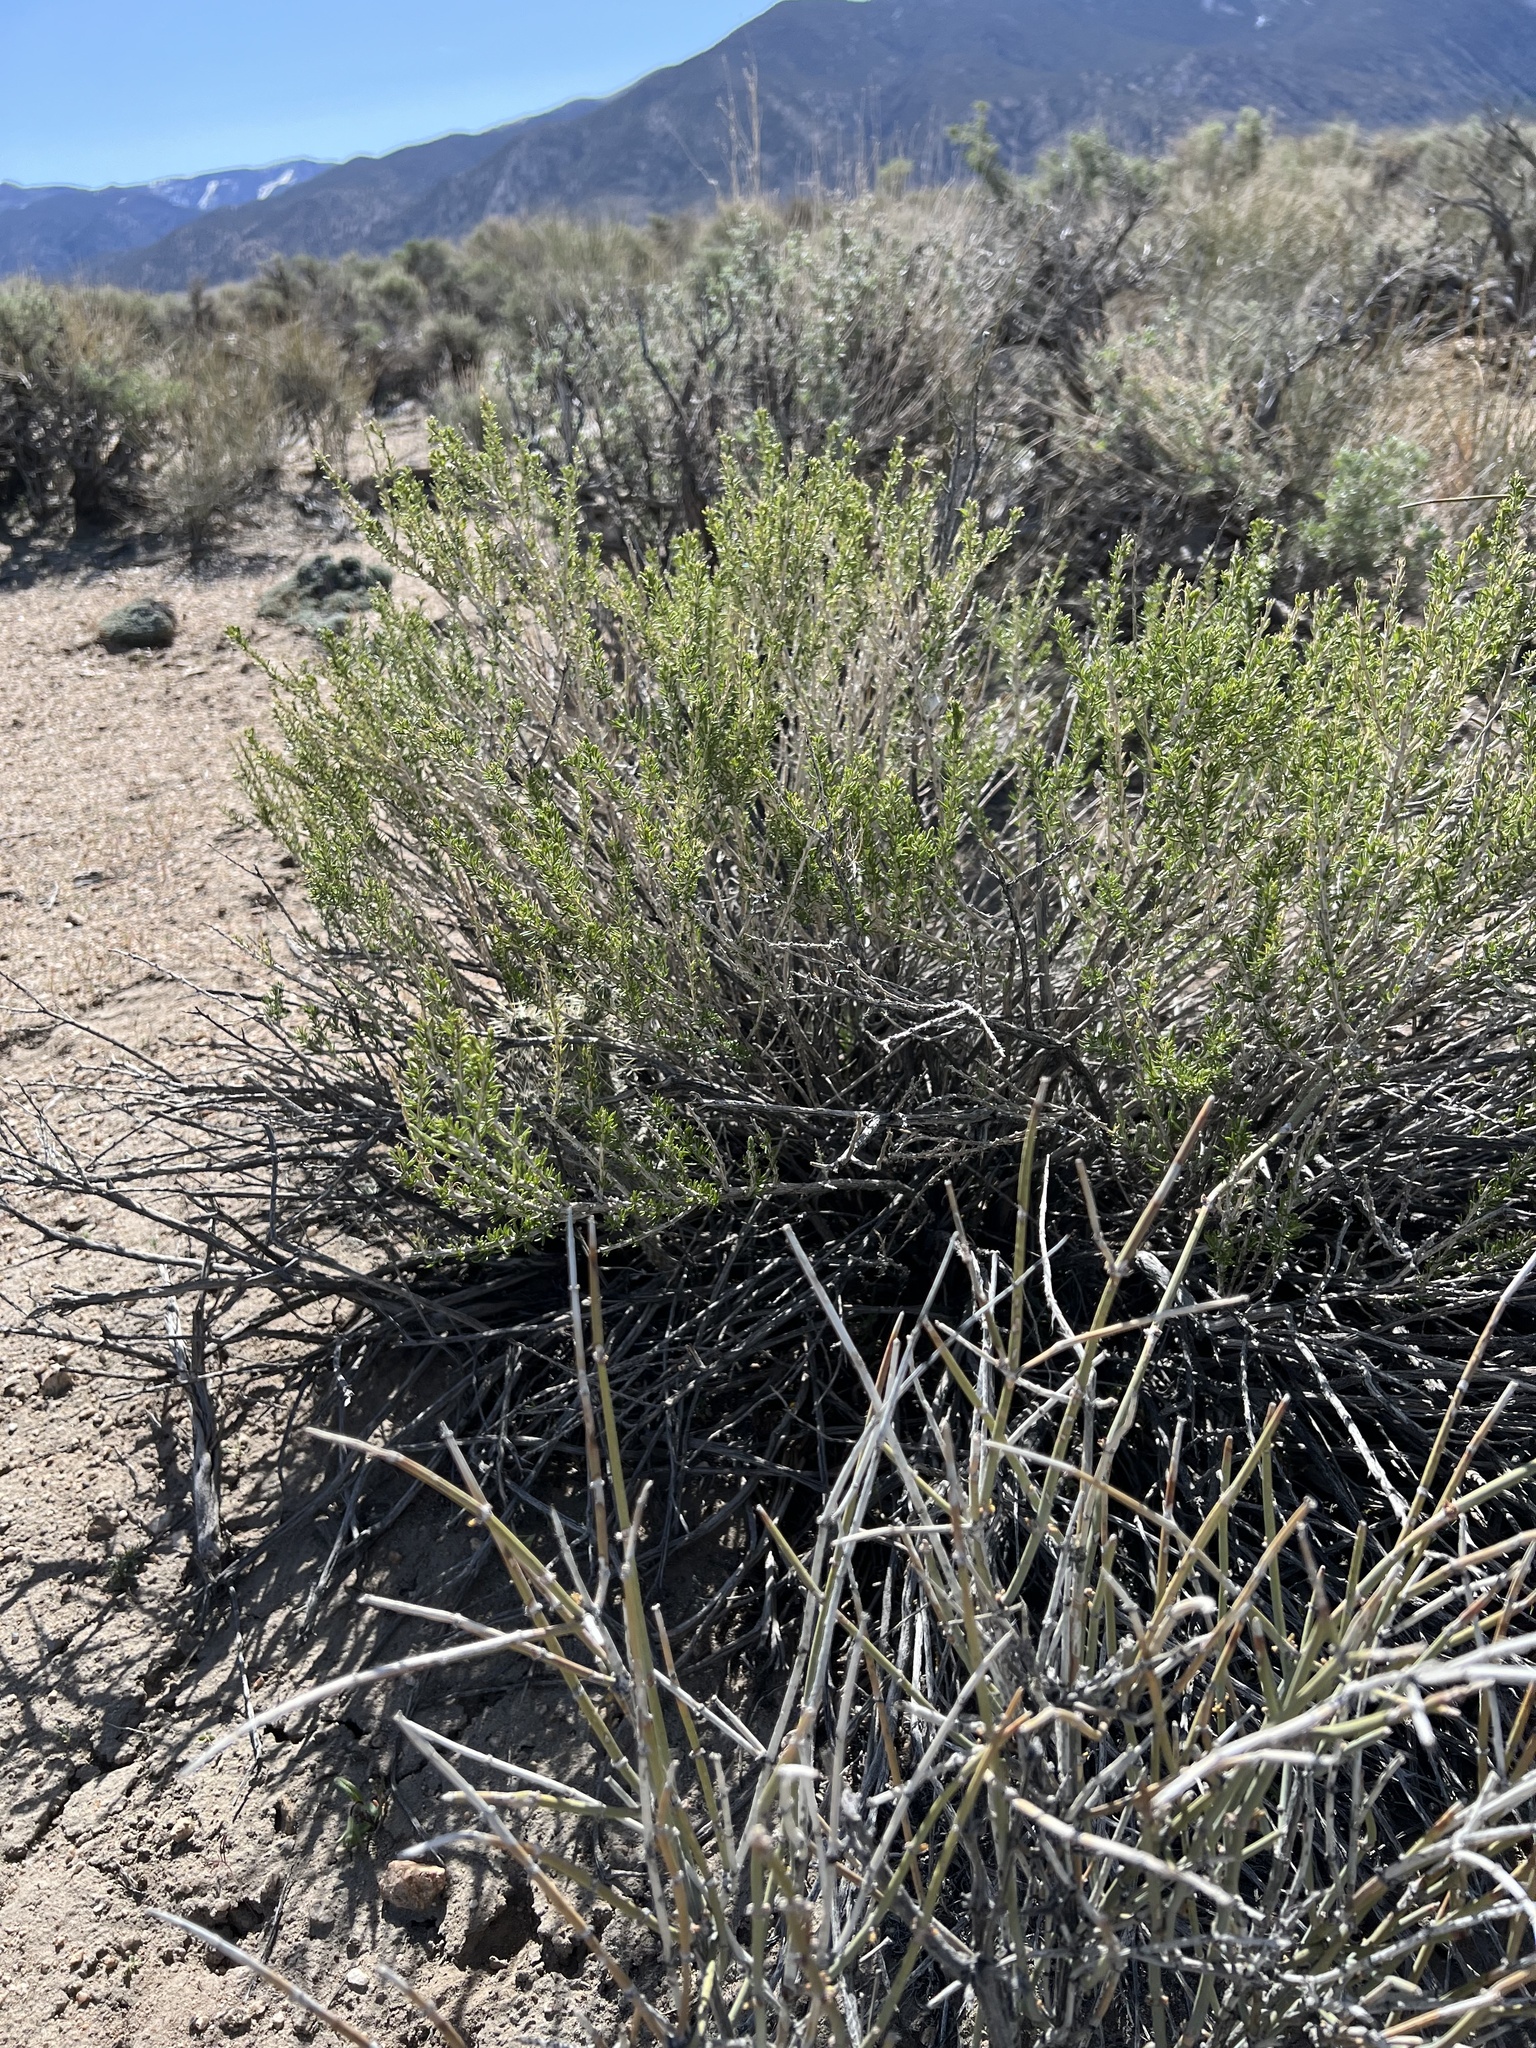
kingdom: Plantae
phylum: Tracheophyta
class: Magnoliopsida
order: Asterales
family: Asteraceae
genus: Tetradymia
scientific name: Tetradymia glabrata
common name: Smooth tetradymia
